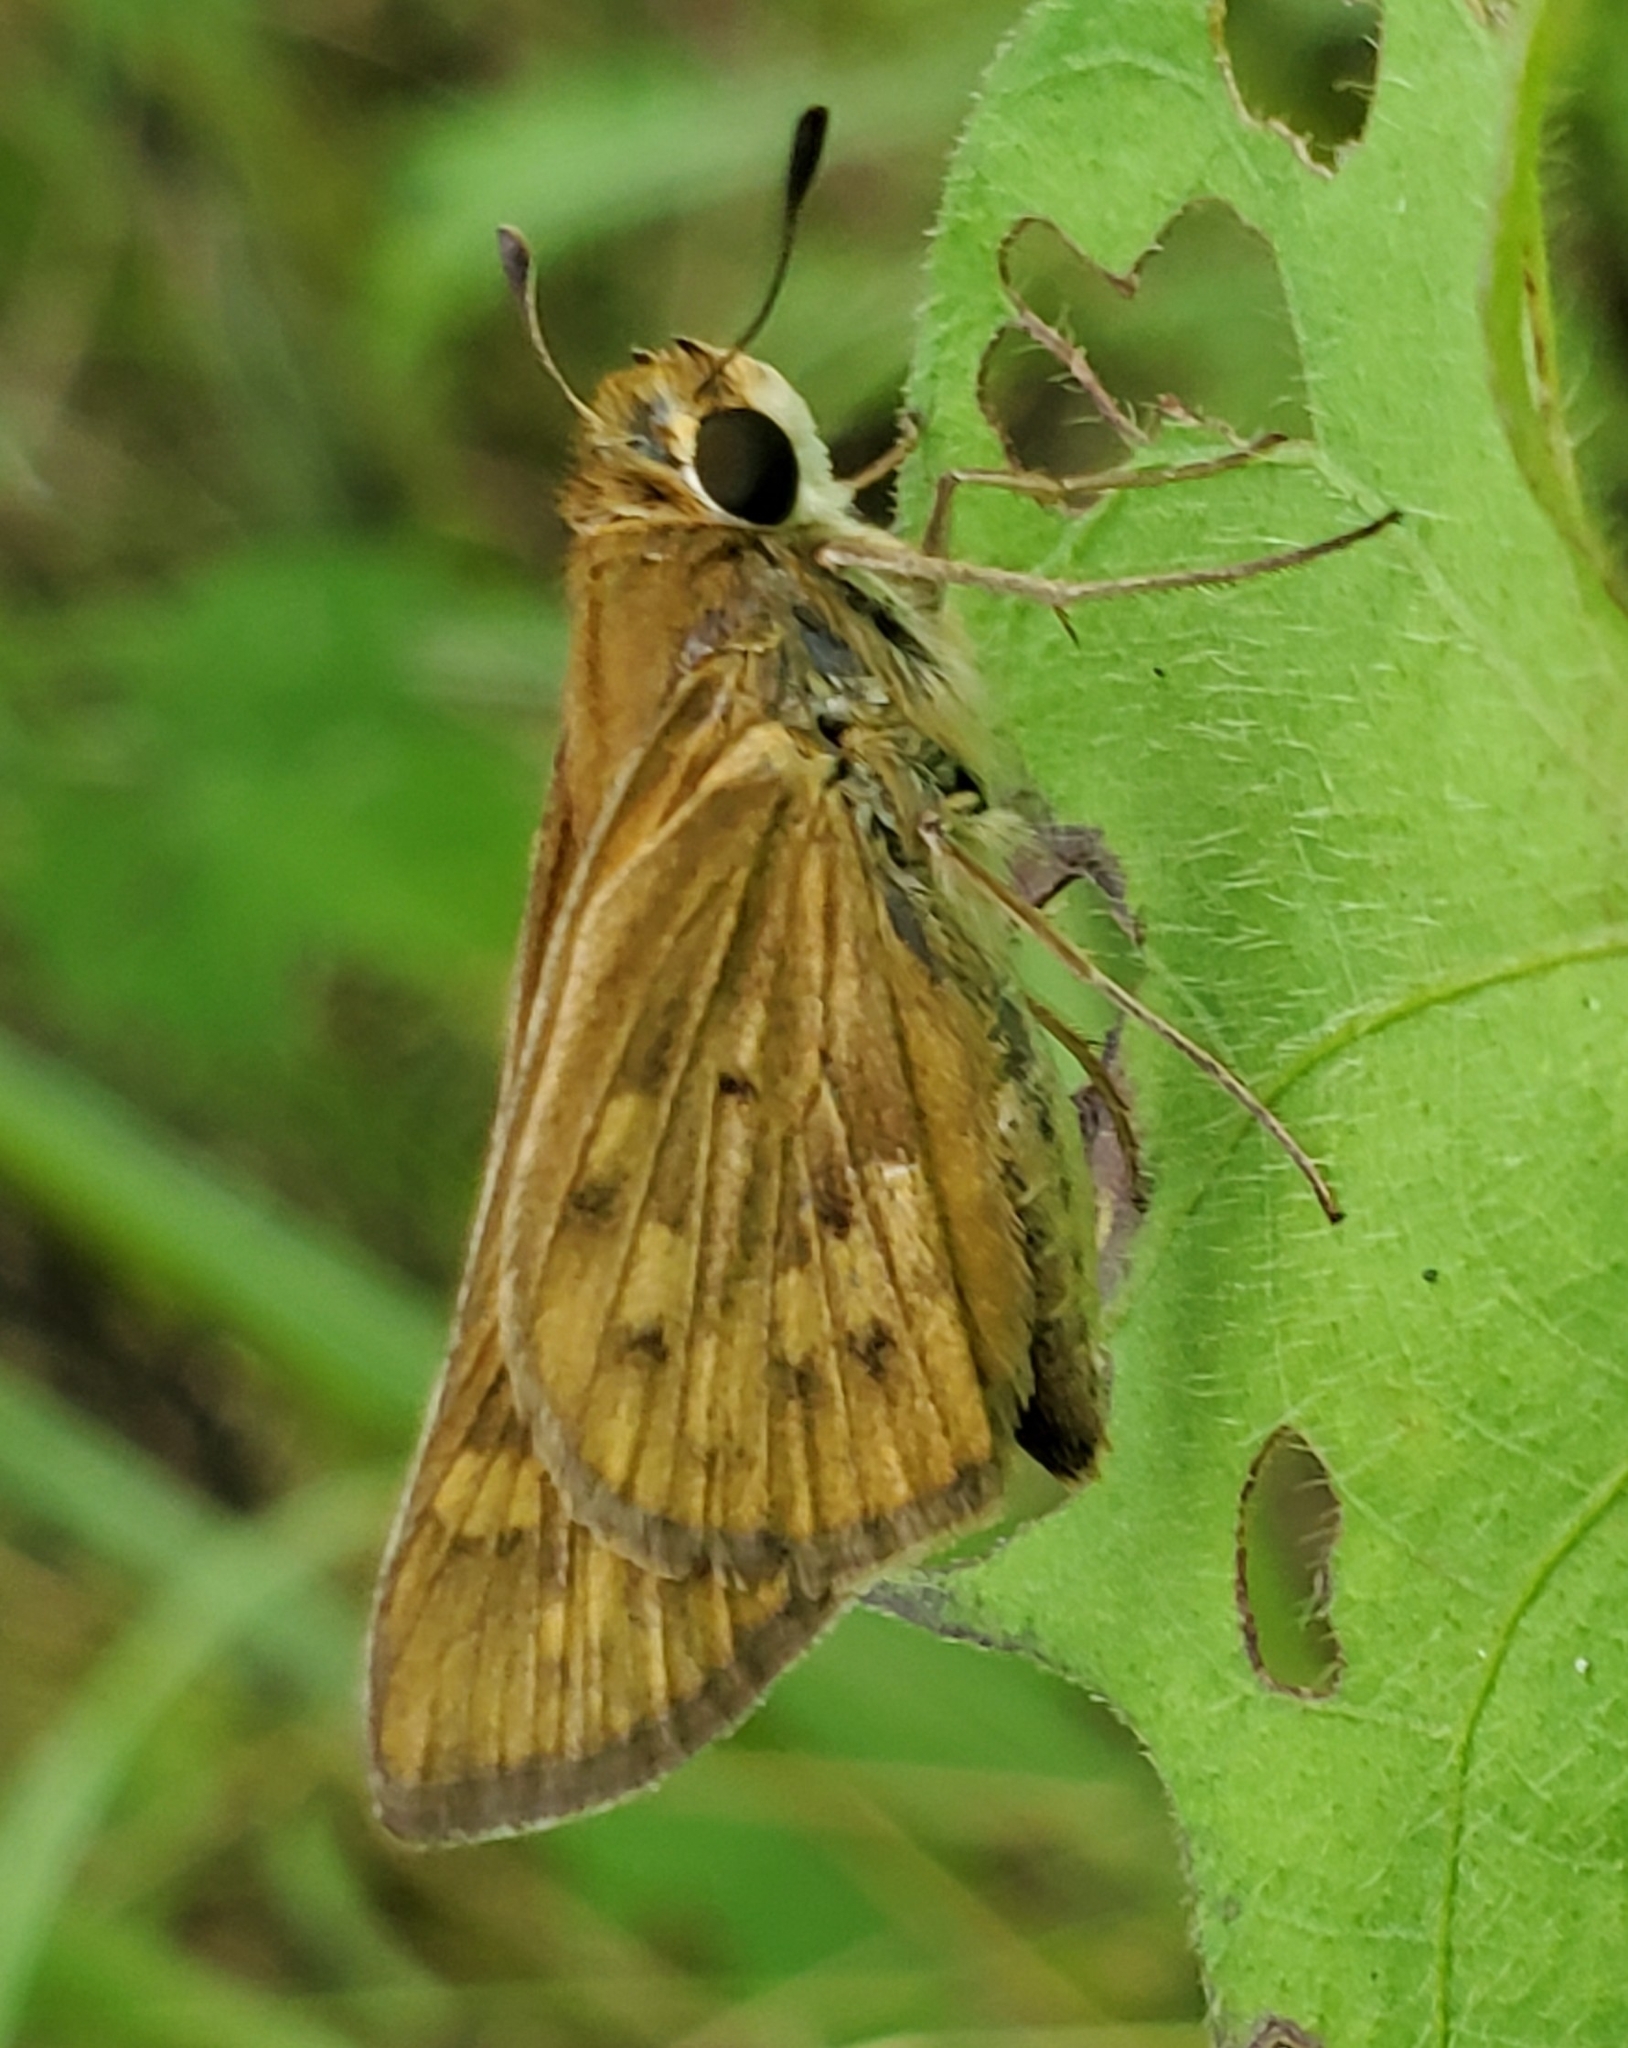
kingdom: Animalia
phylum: Arthropoda
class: Insecta
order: Lepidoptera
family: Hesperiidae
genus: Hylephila
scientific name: Hylephila phyleus
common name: Fiery skipper
